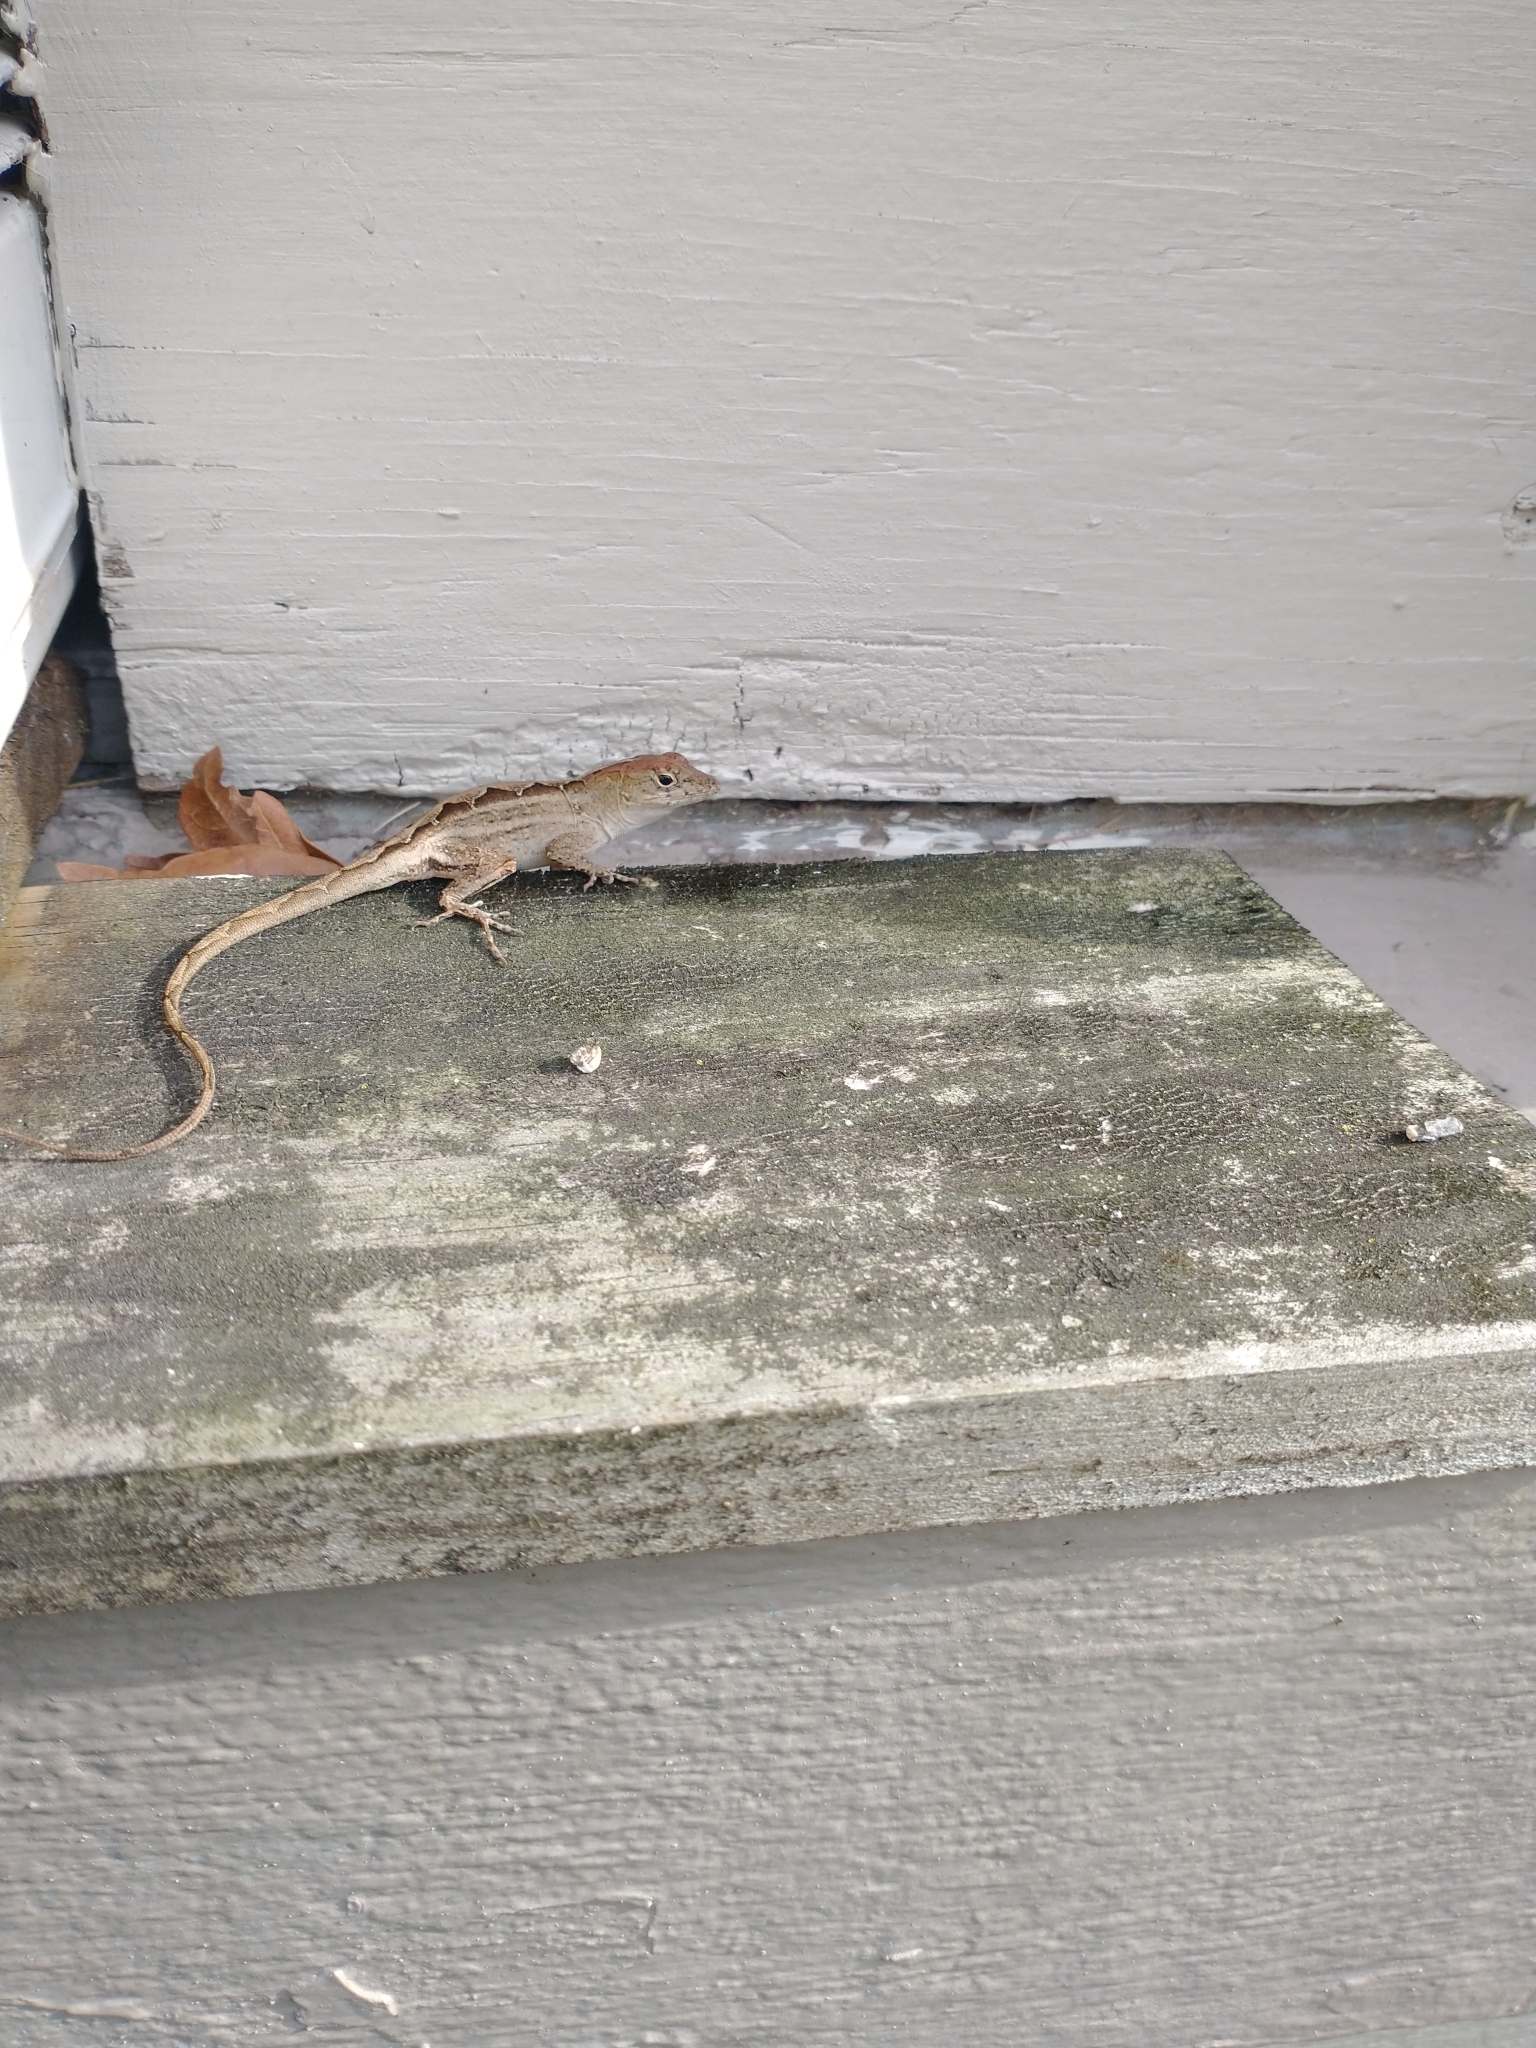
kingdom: Animalia
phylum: Chordata
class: Squamata
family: Dactyloidae
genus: Anolis
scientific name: Anolis sagrei
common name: Brown anole
